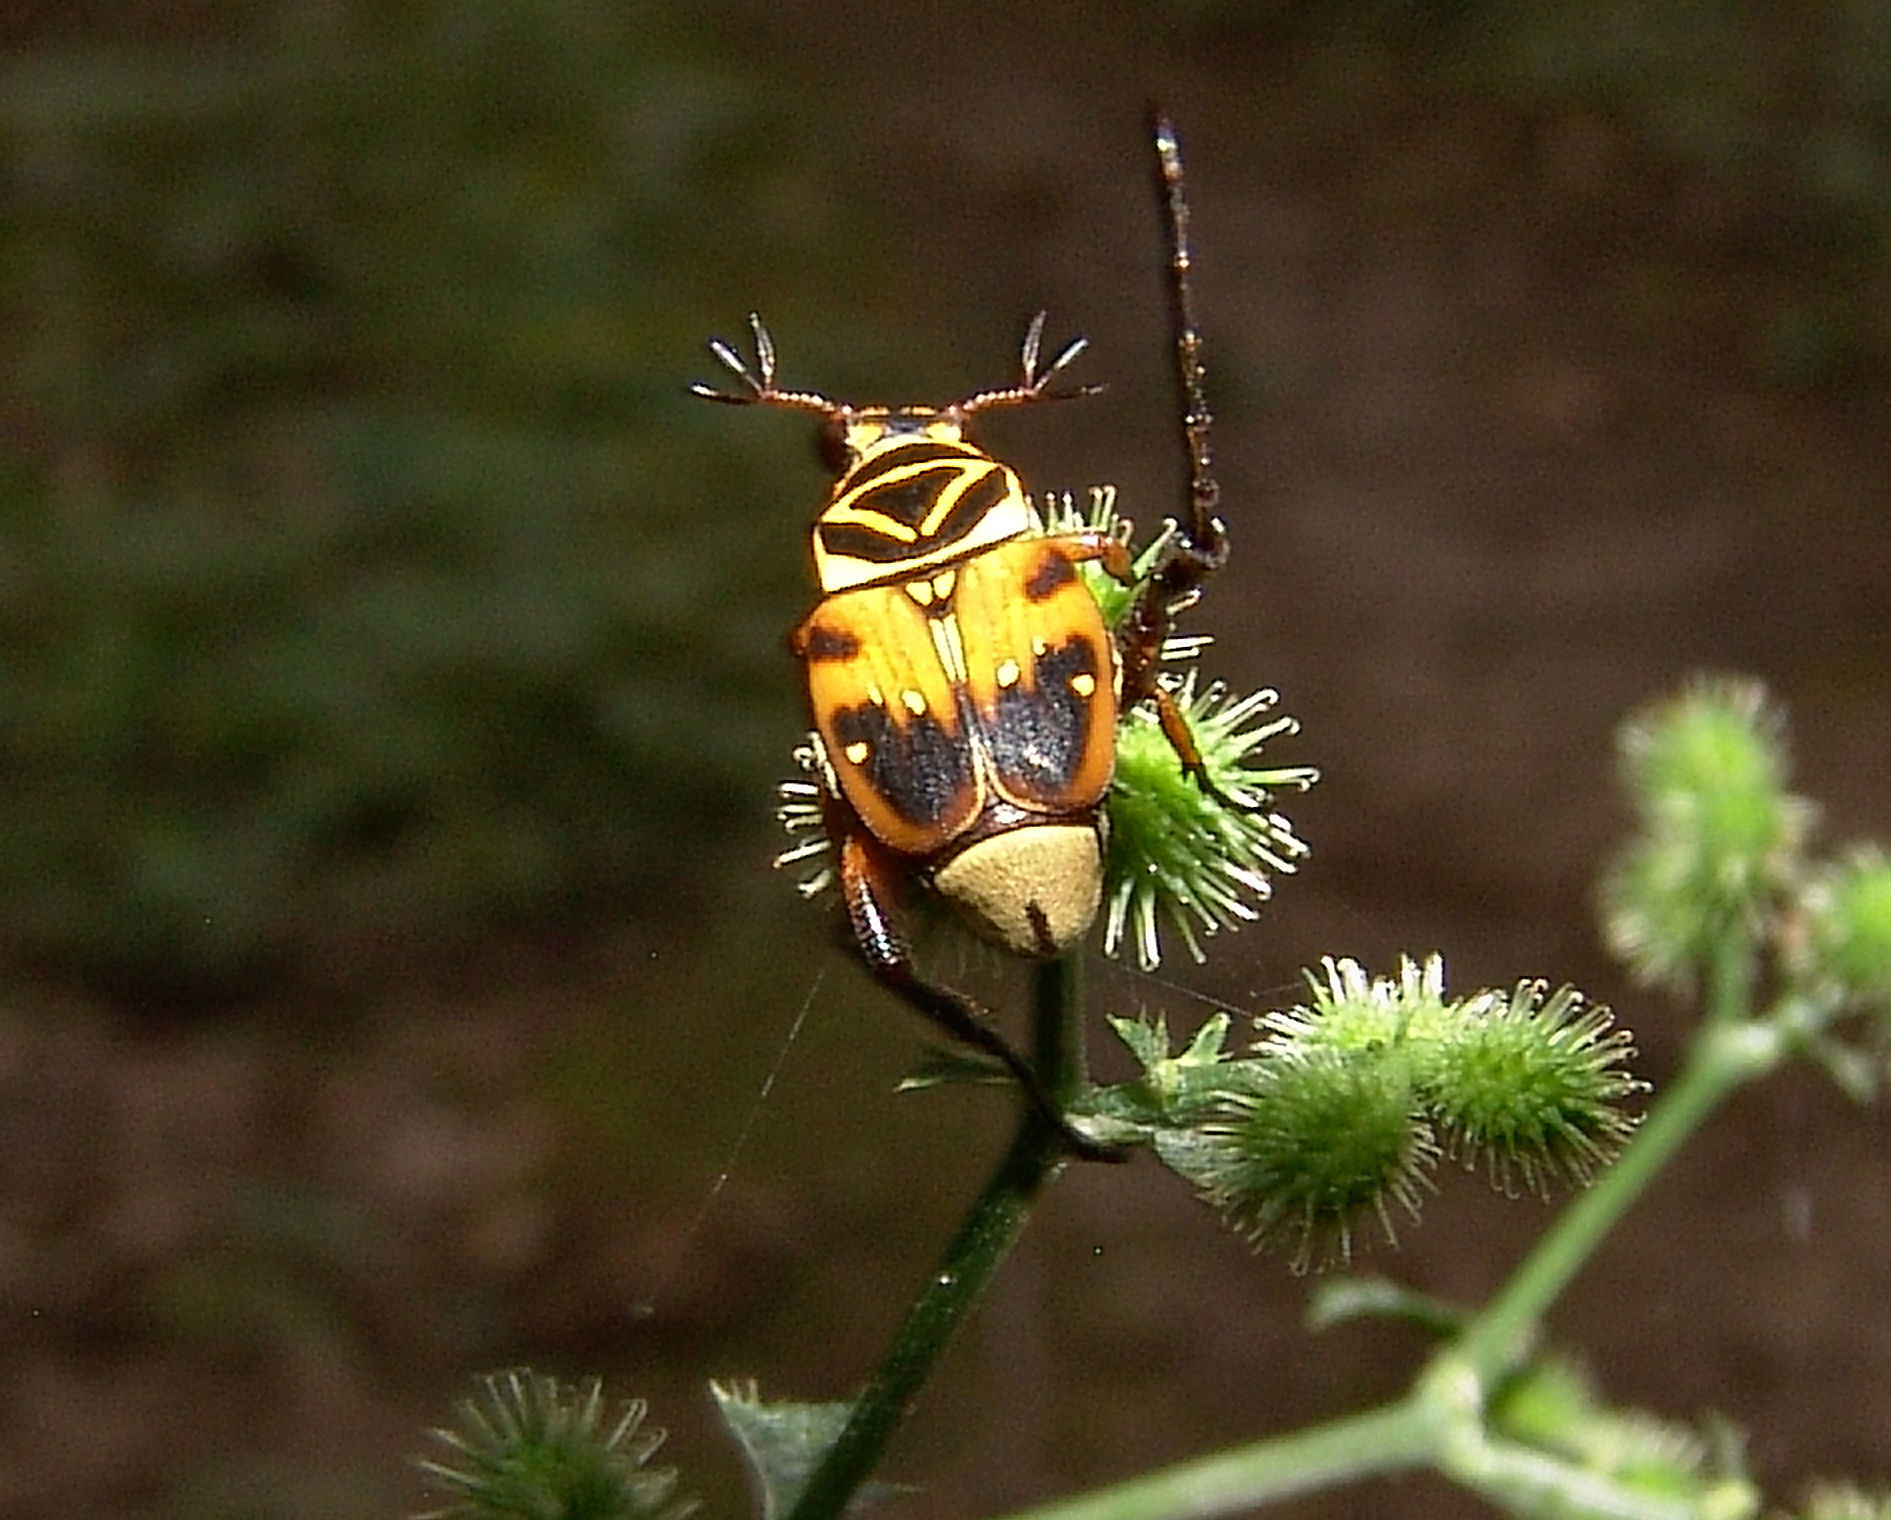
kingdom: Animalia
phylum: Arthropoda
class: Insecta
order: Coleoptera
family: Scarabaeidae
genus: Trigonopeltastes
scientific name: Trigonopeltastes delta
